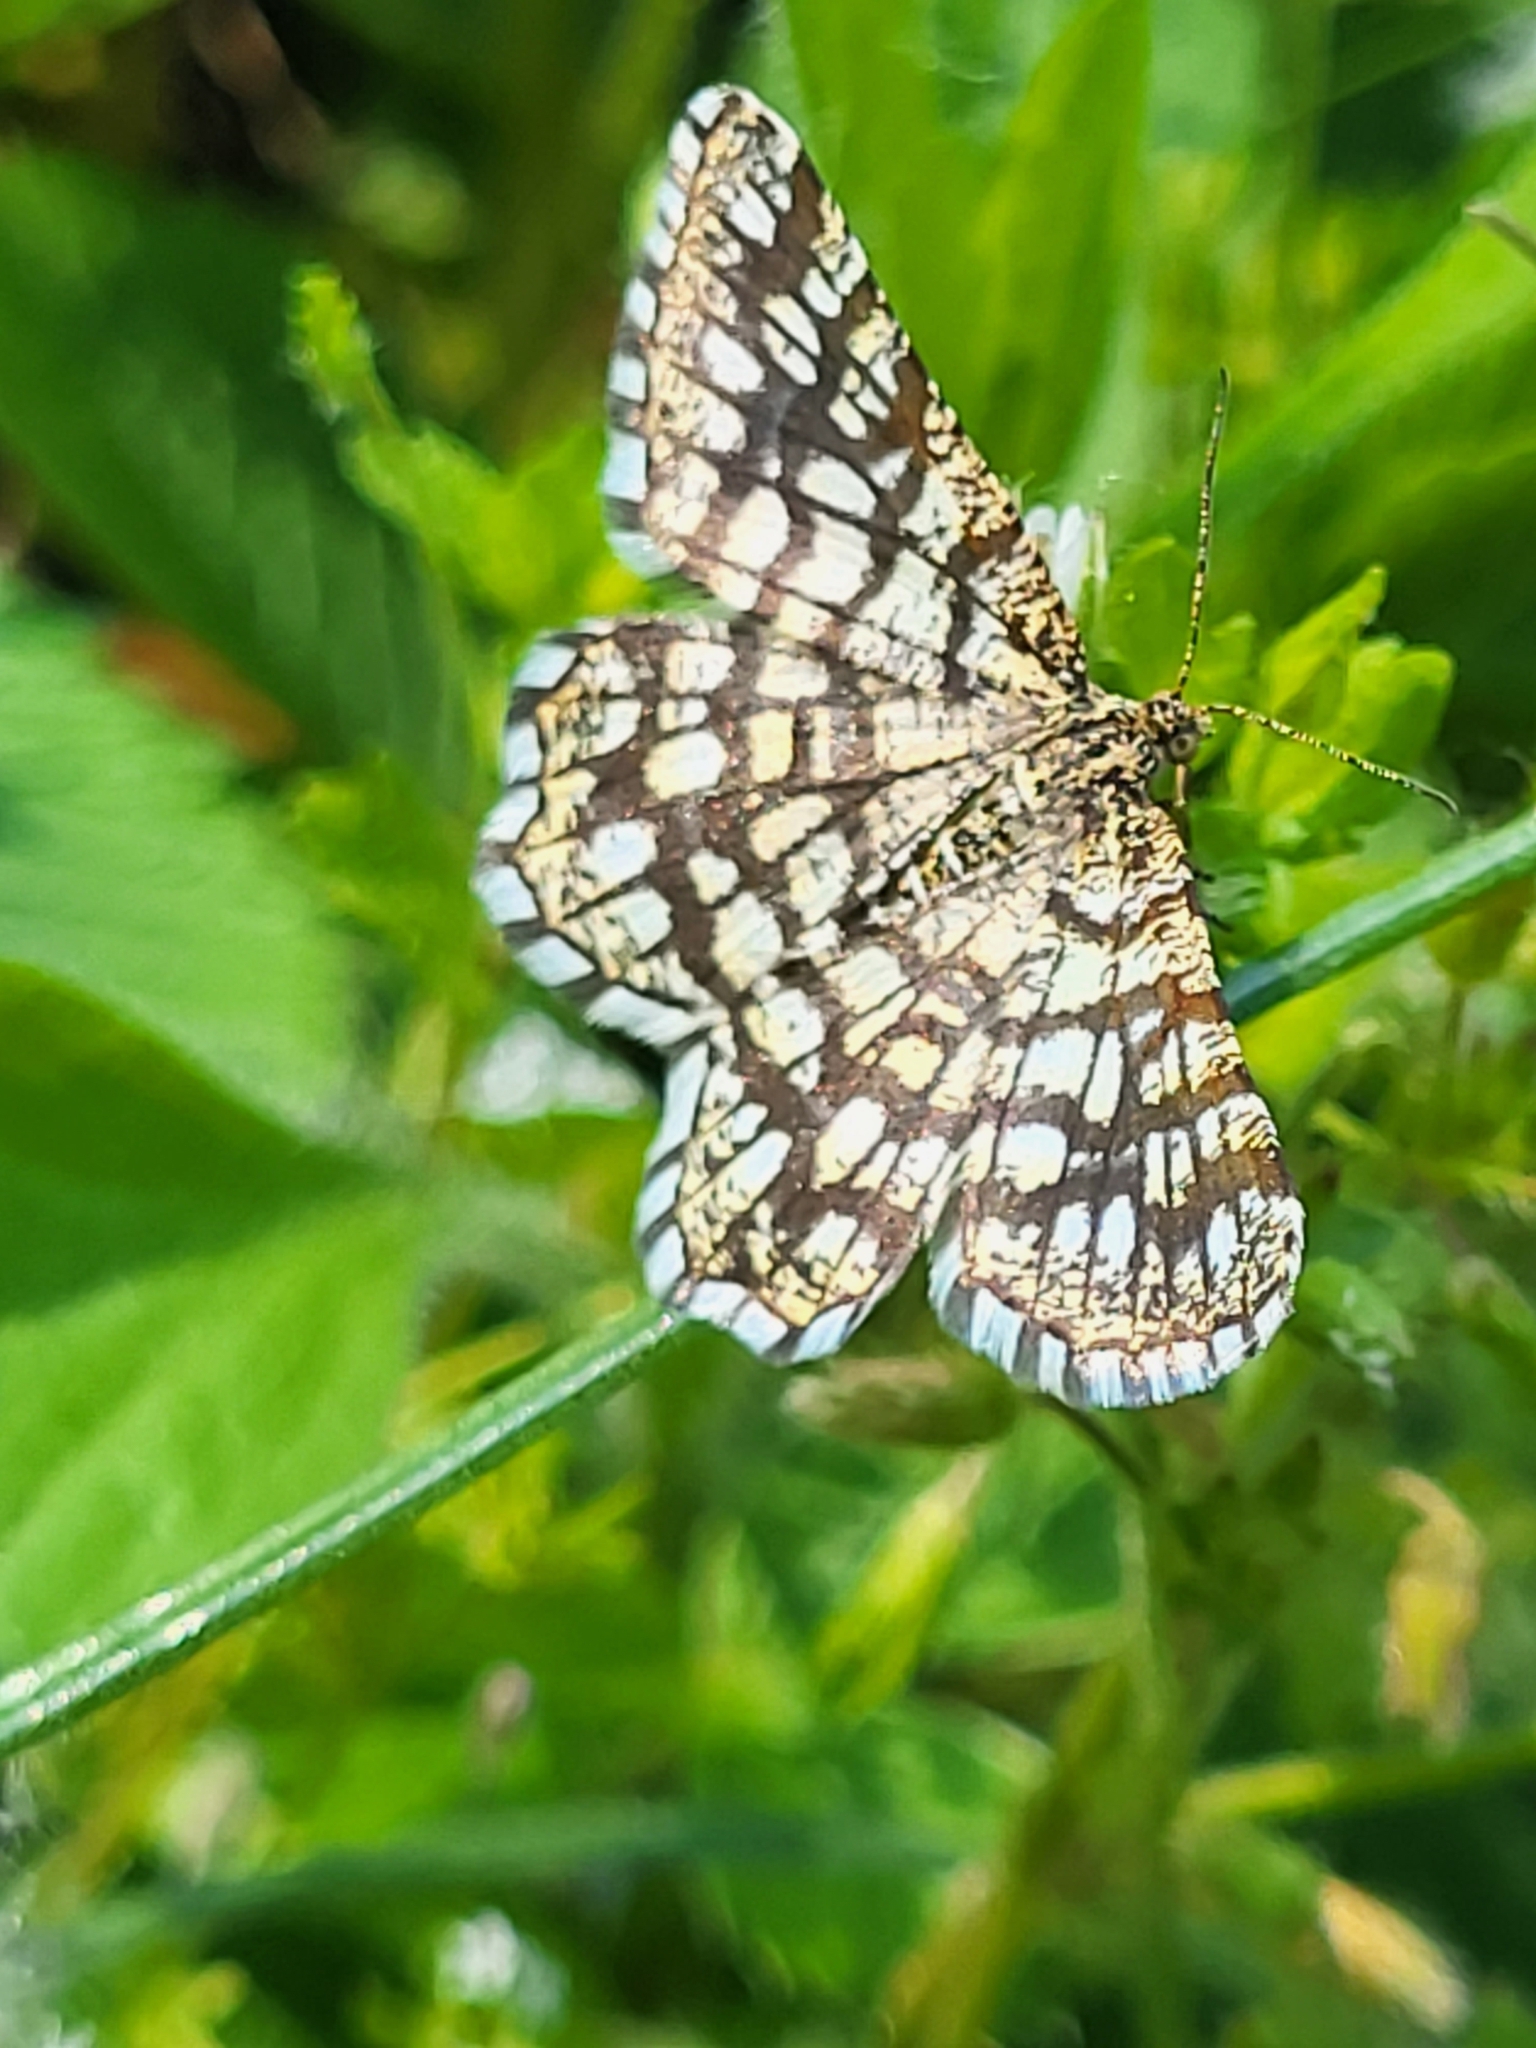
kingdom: Animalia
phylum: Arthropoda
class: Insecta
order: Lepidoptera
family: Geometridae
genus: Chiasmia
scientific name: Chiasmia clathrata
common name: Latticed heath
